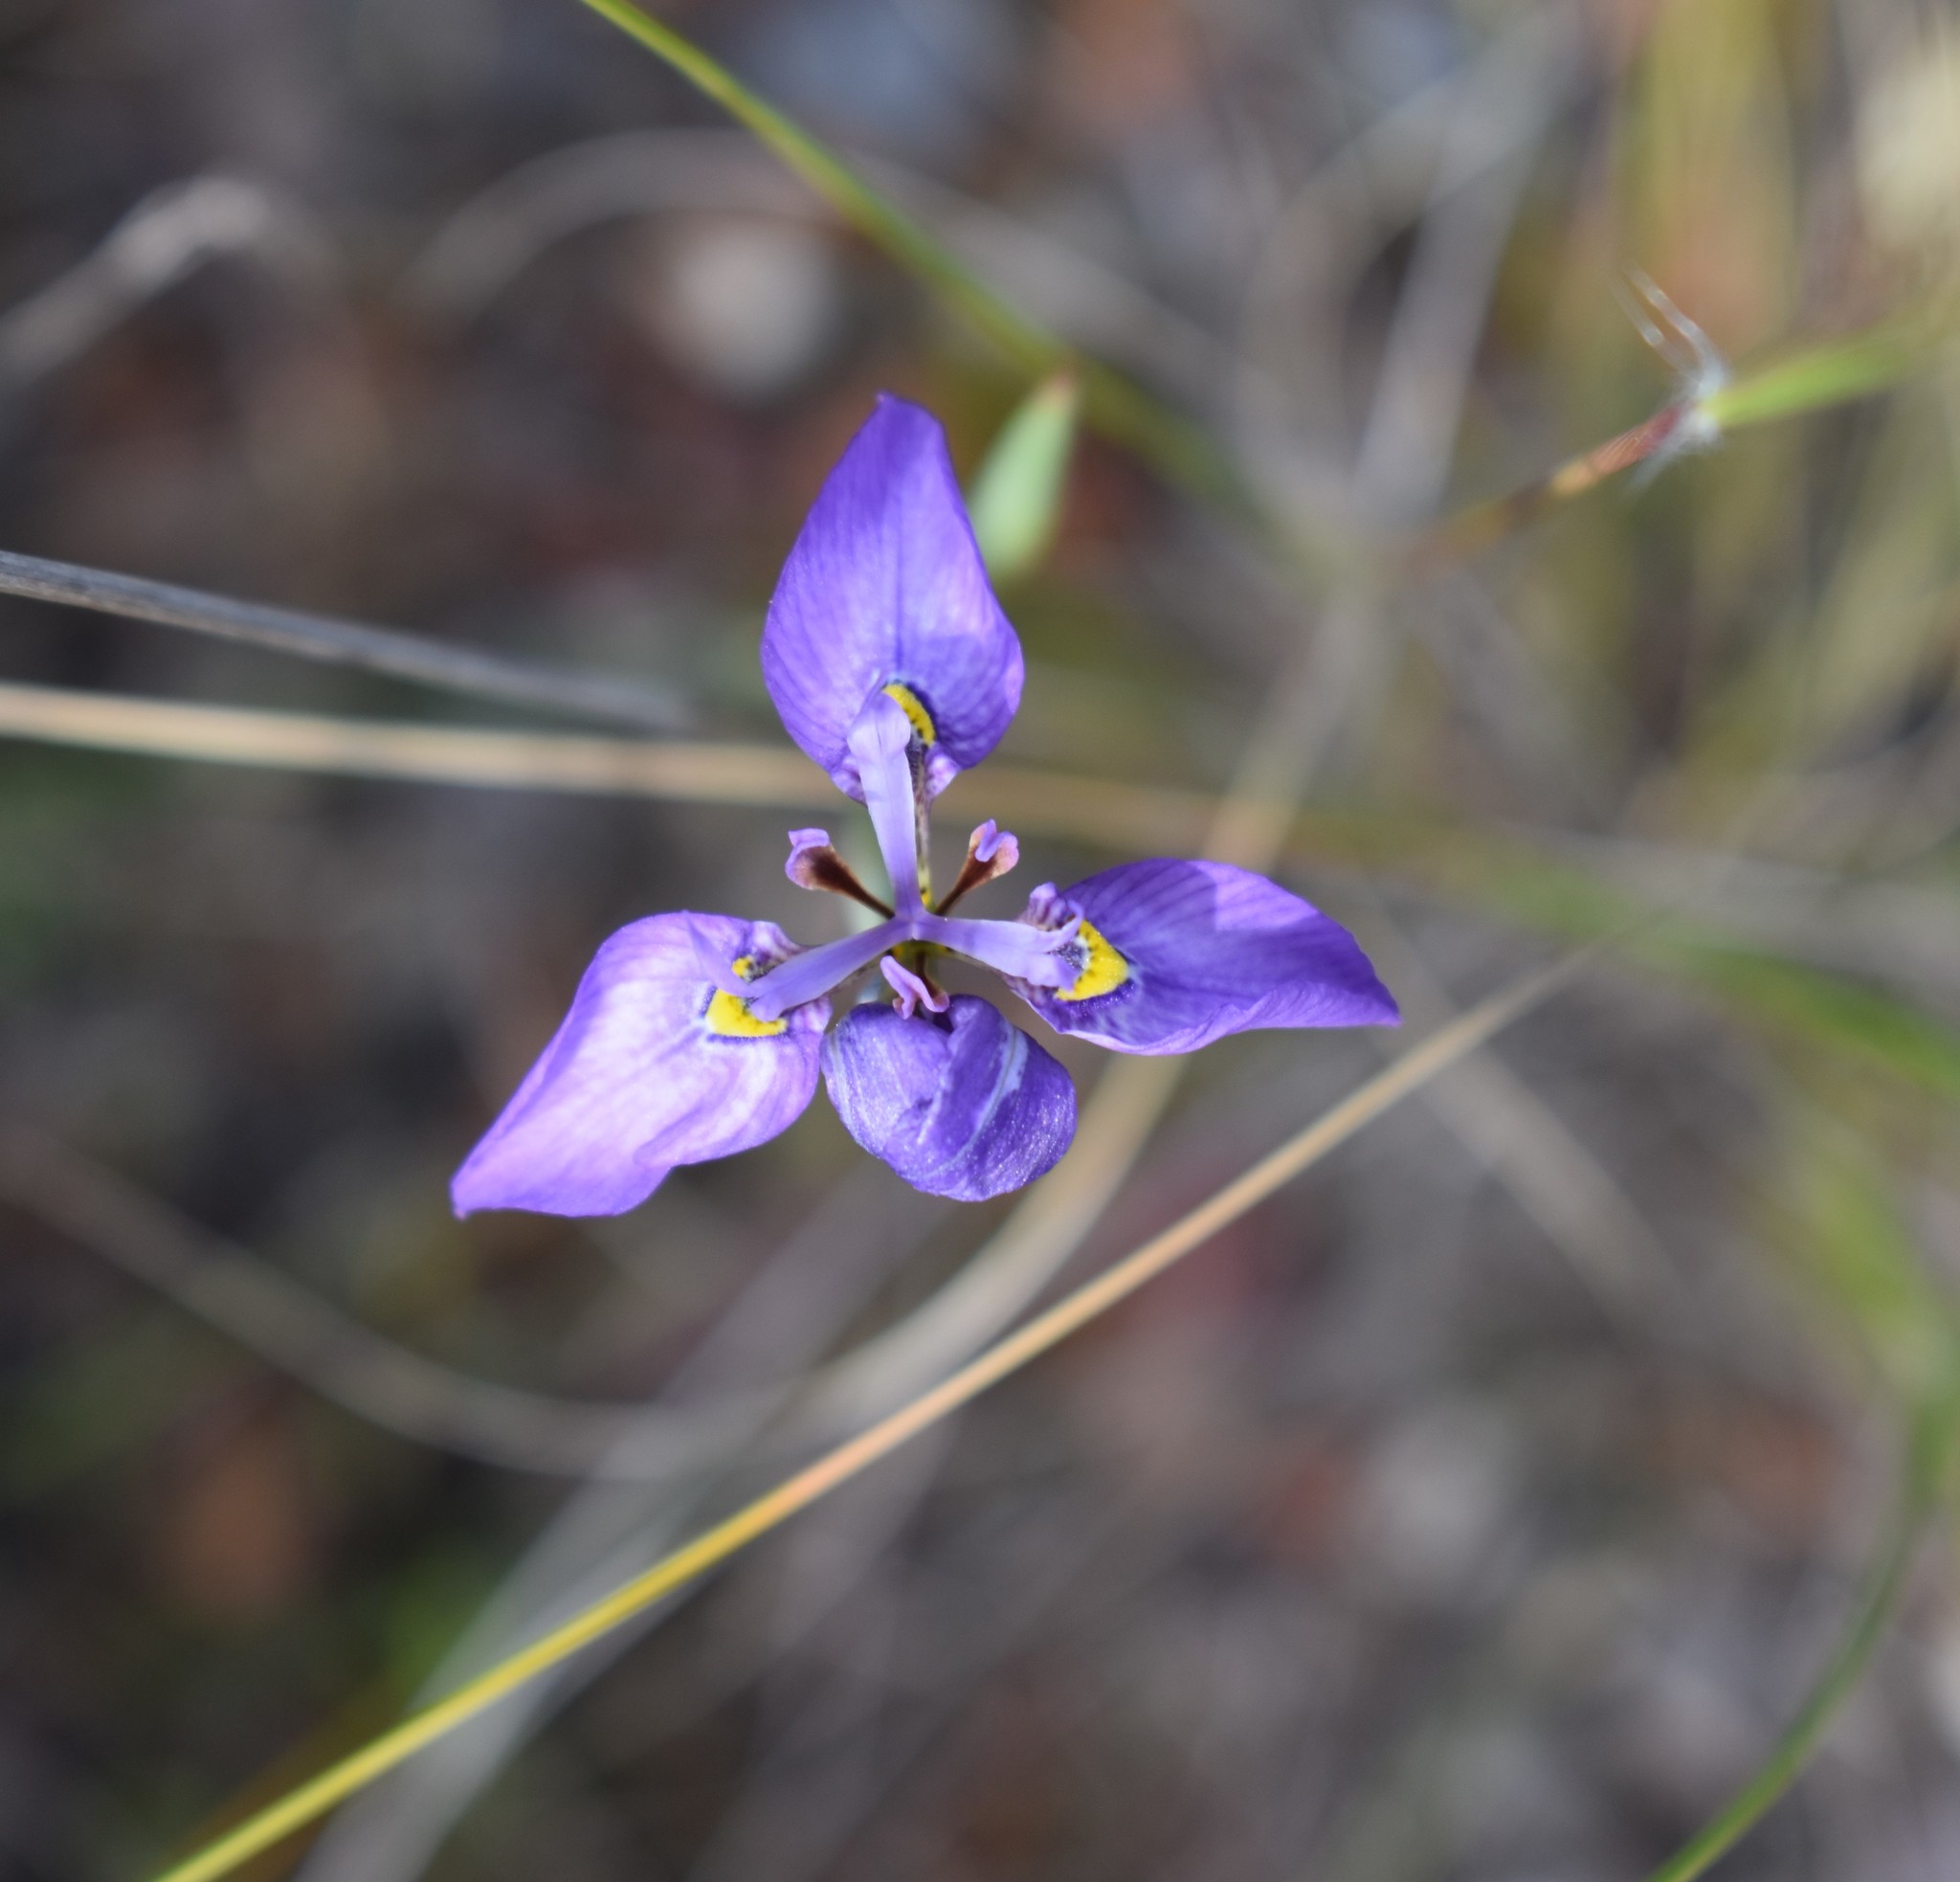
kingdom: Plantae
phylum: Tracheophyta
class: Liliopsida
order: Asparagales
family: Iridaceae
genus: Moraea
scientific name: Moraea algoensis
